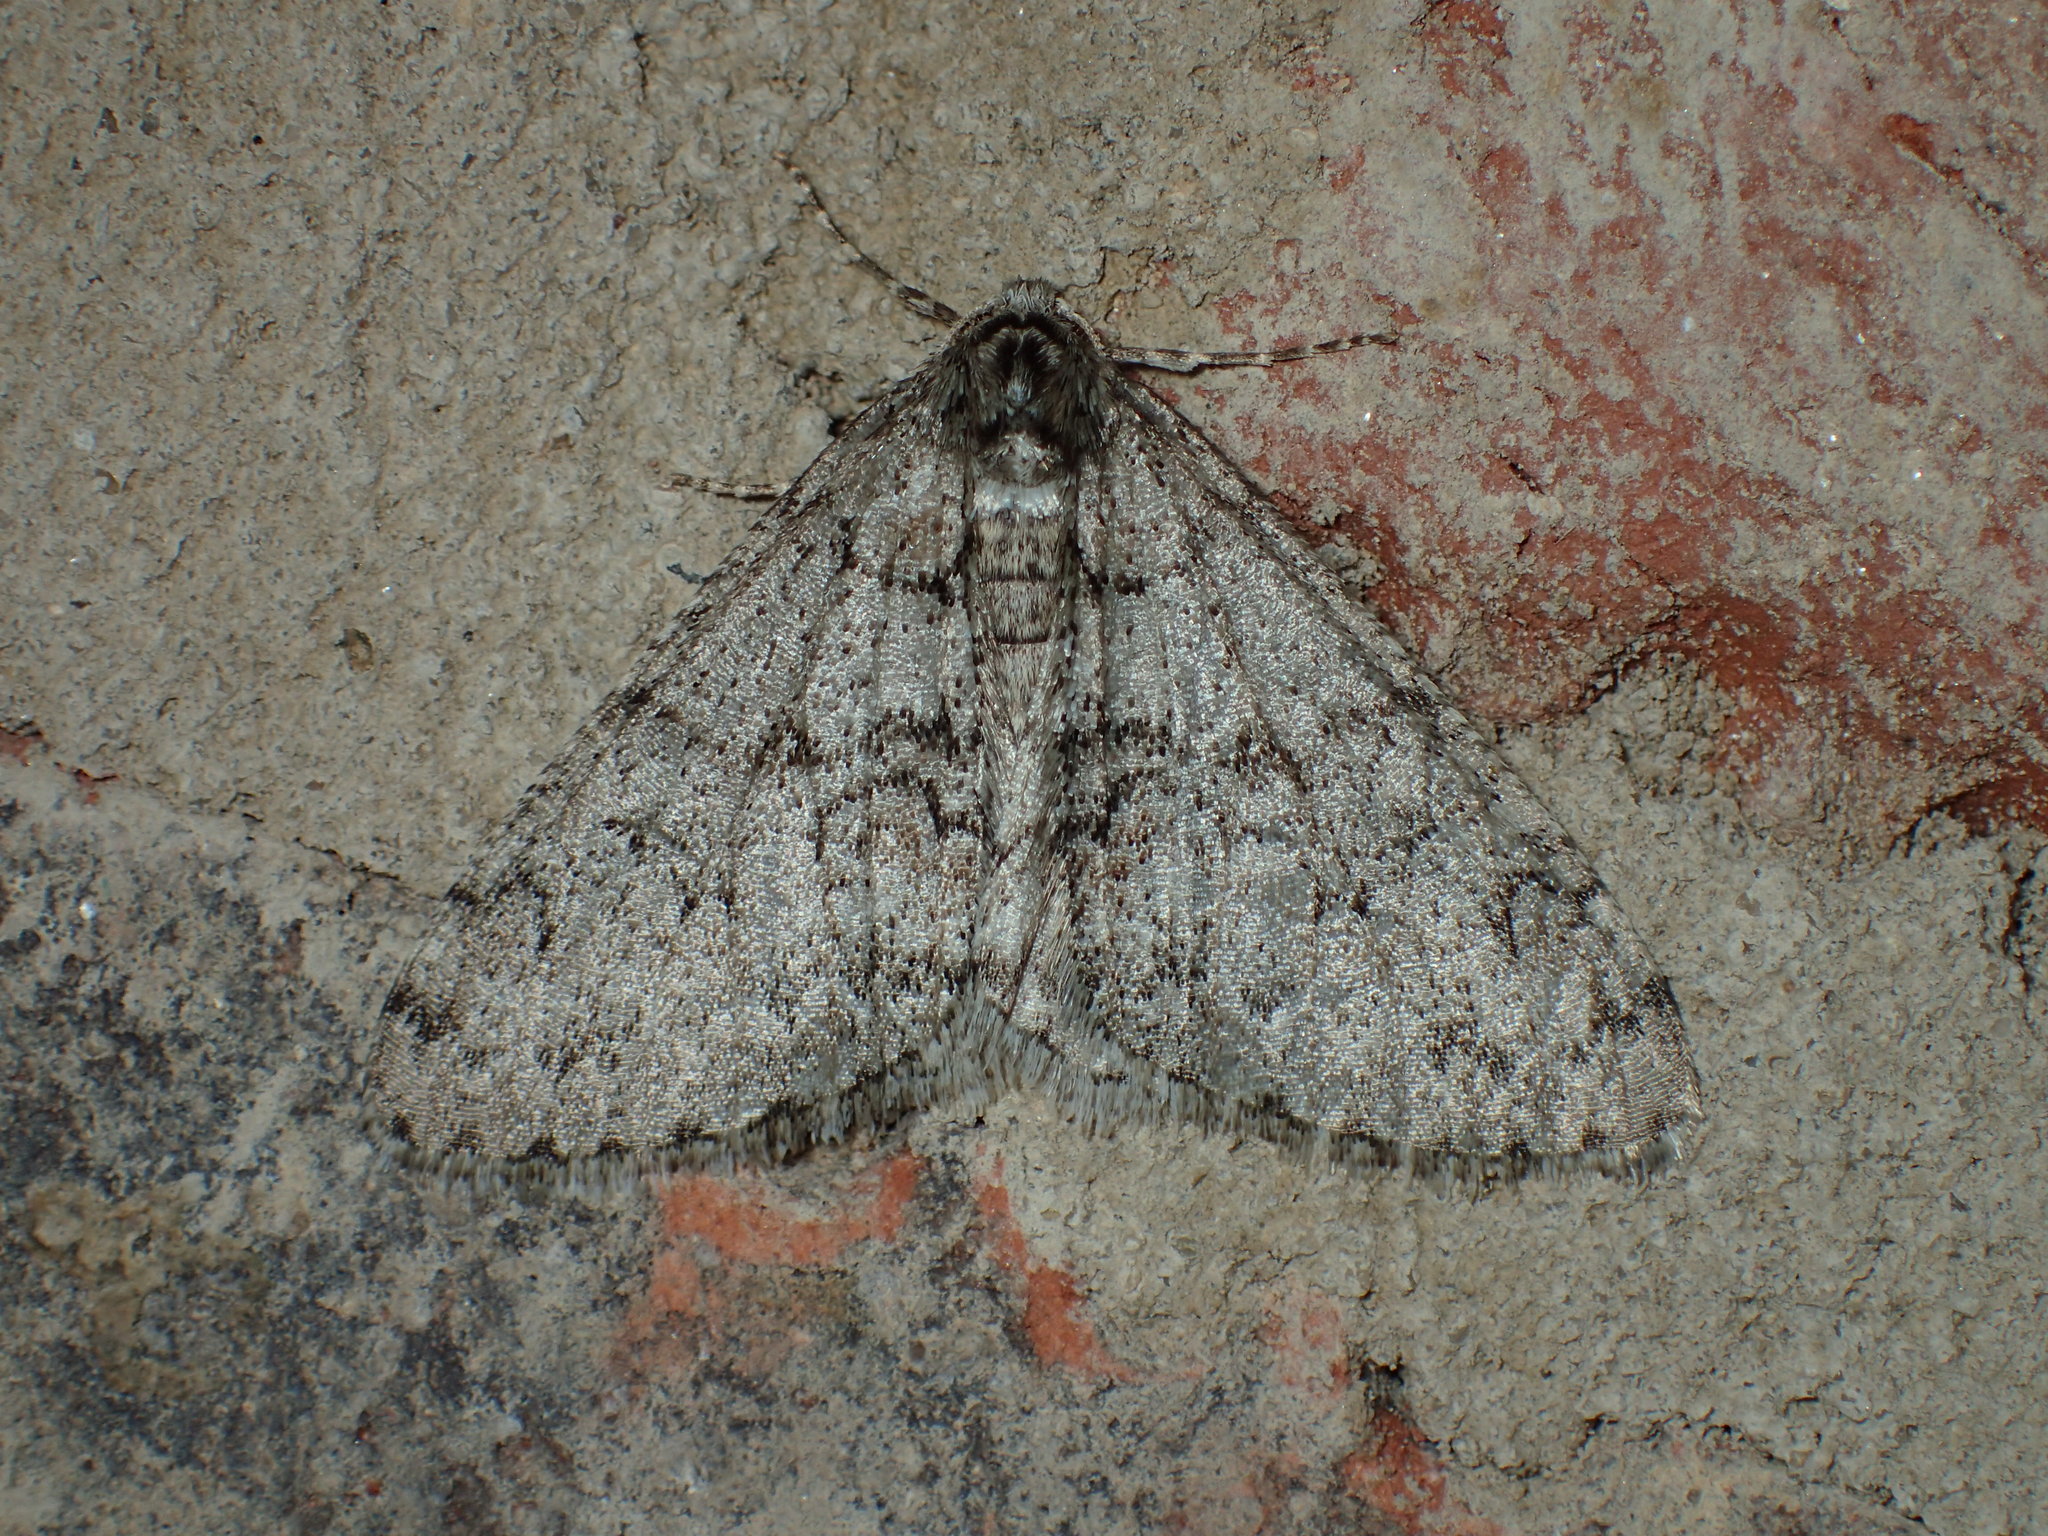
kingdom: Animalia
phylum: Arthropoda
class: Insecta
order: Lepidoptera
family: Geometridae
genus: Phigalia
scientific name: Phigalia denticulata
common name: Toothed phigalia
